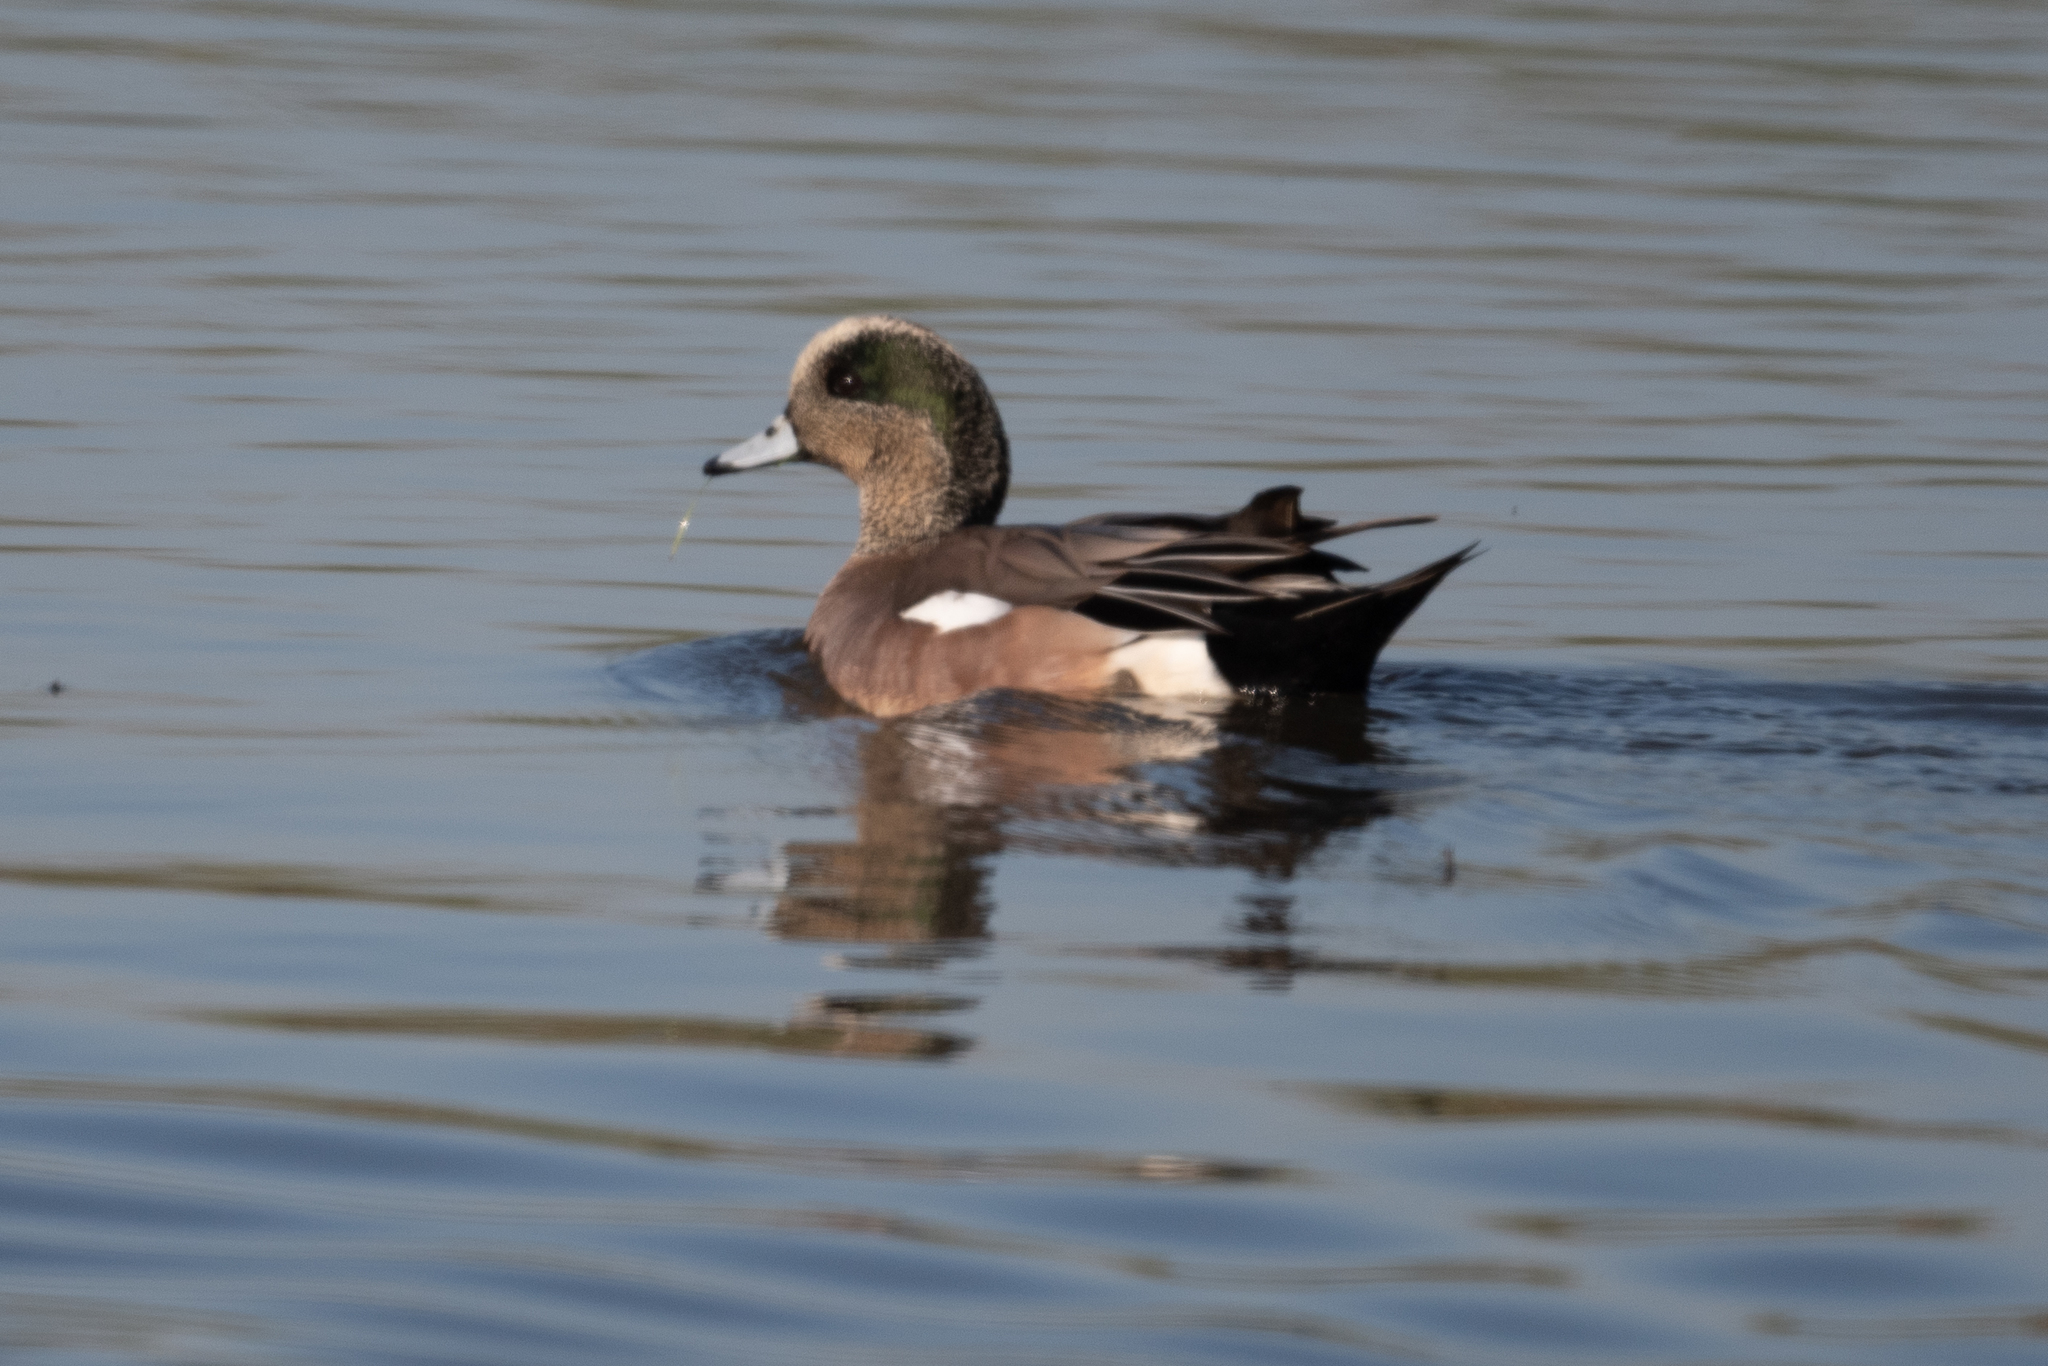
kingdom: Animalia
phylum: Chordata
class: Aves
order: Anseriformes
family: Anatidae
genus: Mareca
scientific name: Mareca americana
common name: American wigeon
